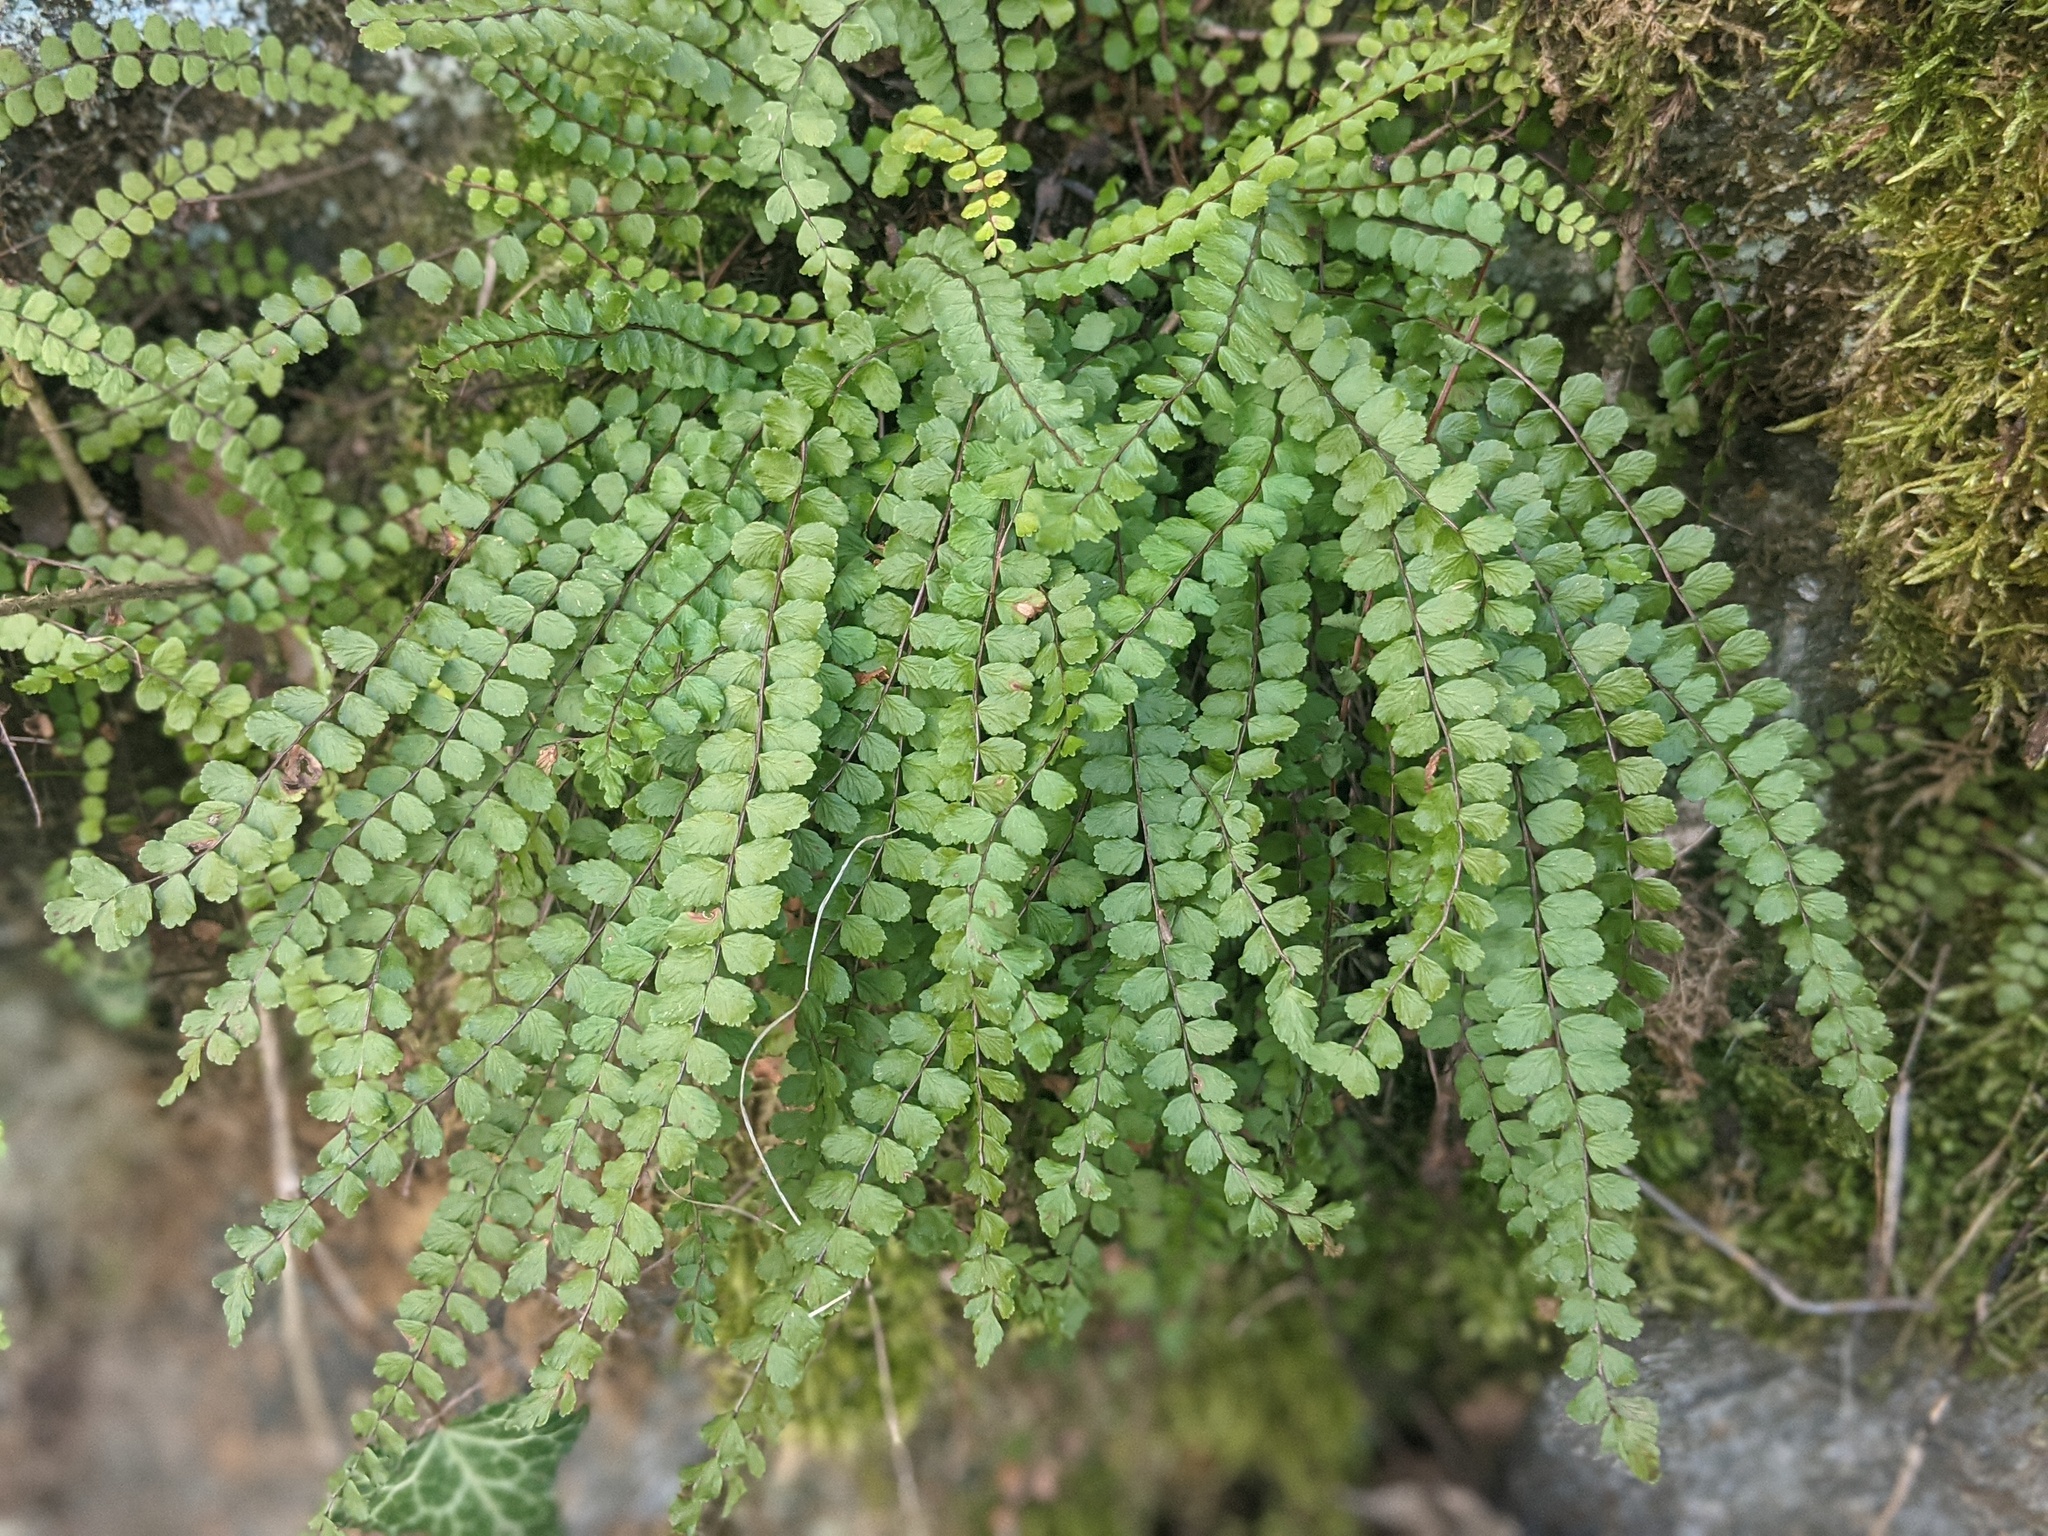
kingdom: Plantae
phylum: Tracheophyta
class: Polypodiopsida
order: Polypodiales
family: Aspleniaceae
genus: Asplenium
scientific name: Asplenium trichomanes
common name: Maidenhair spleenwort
